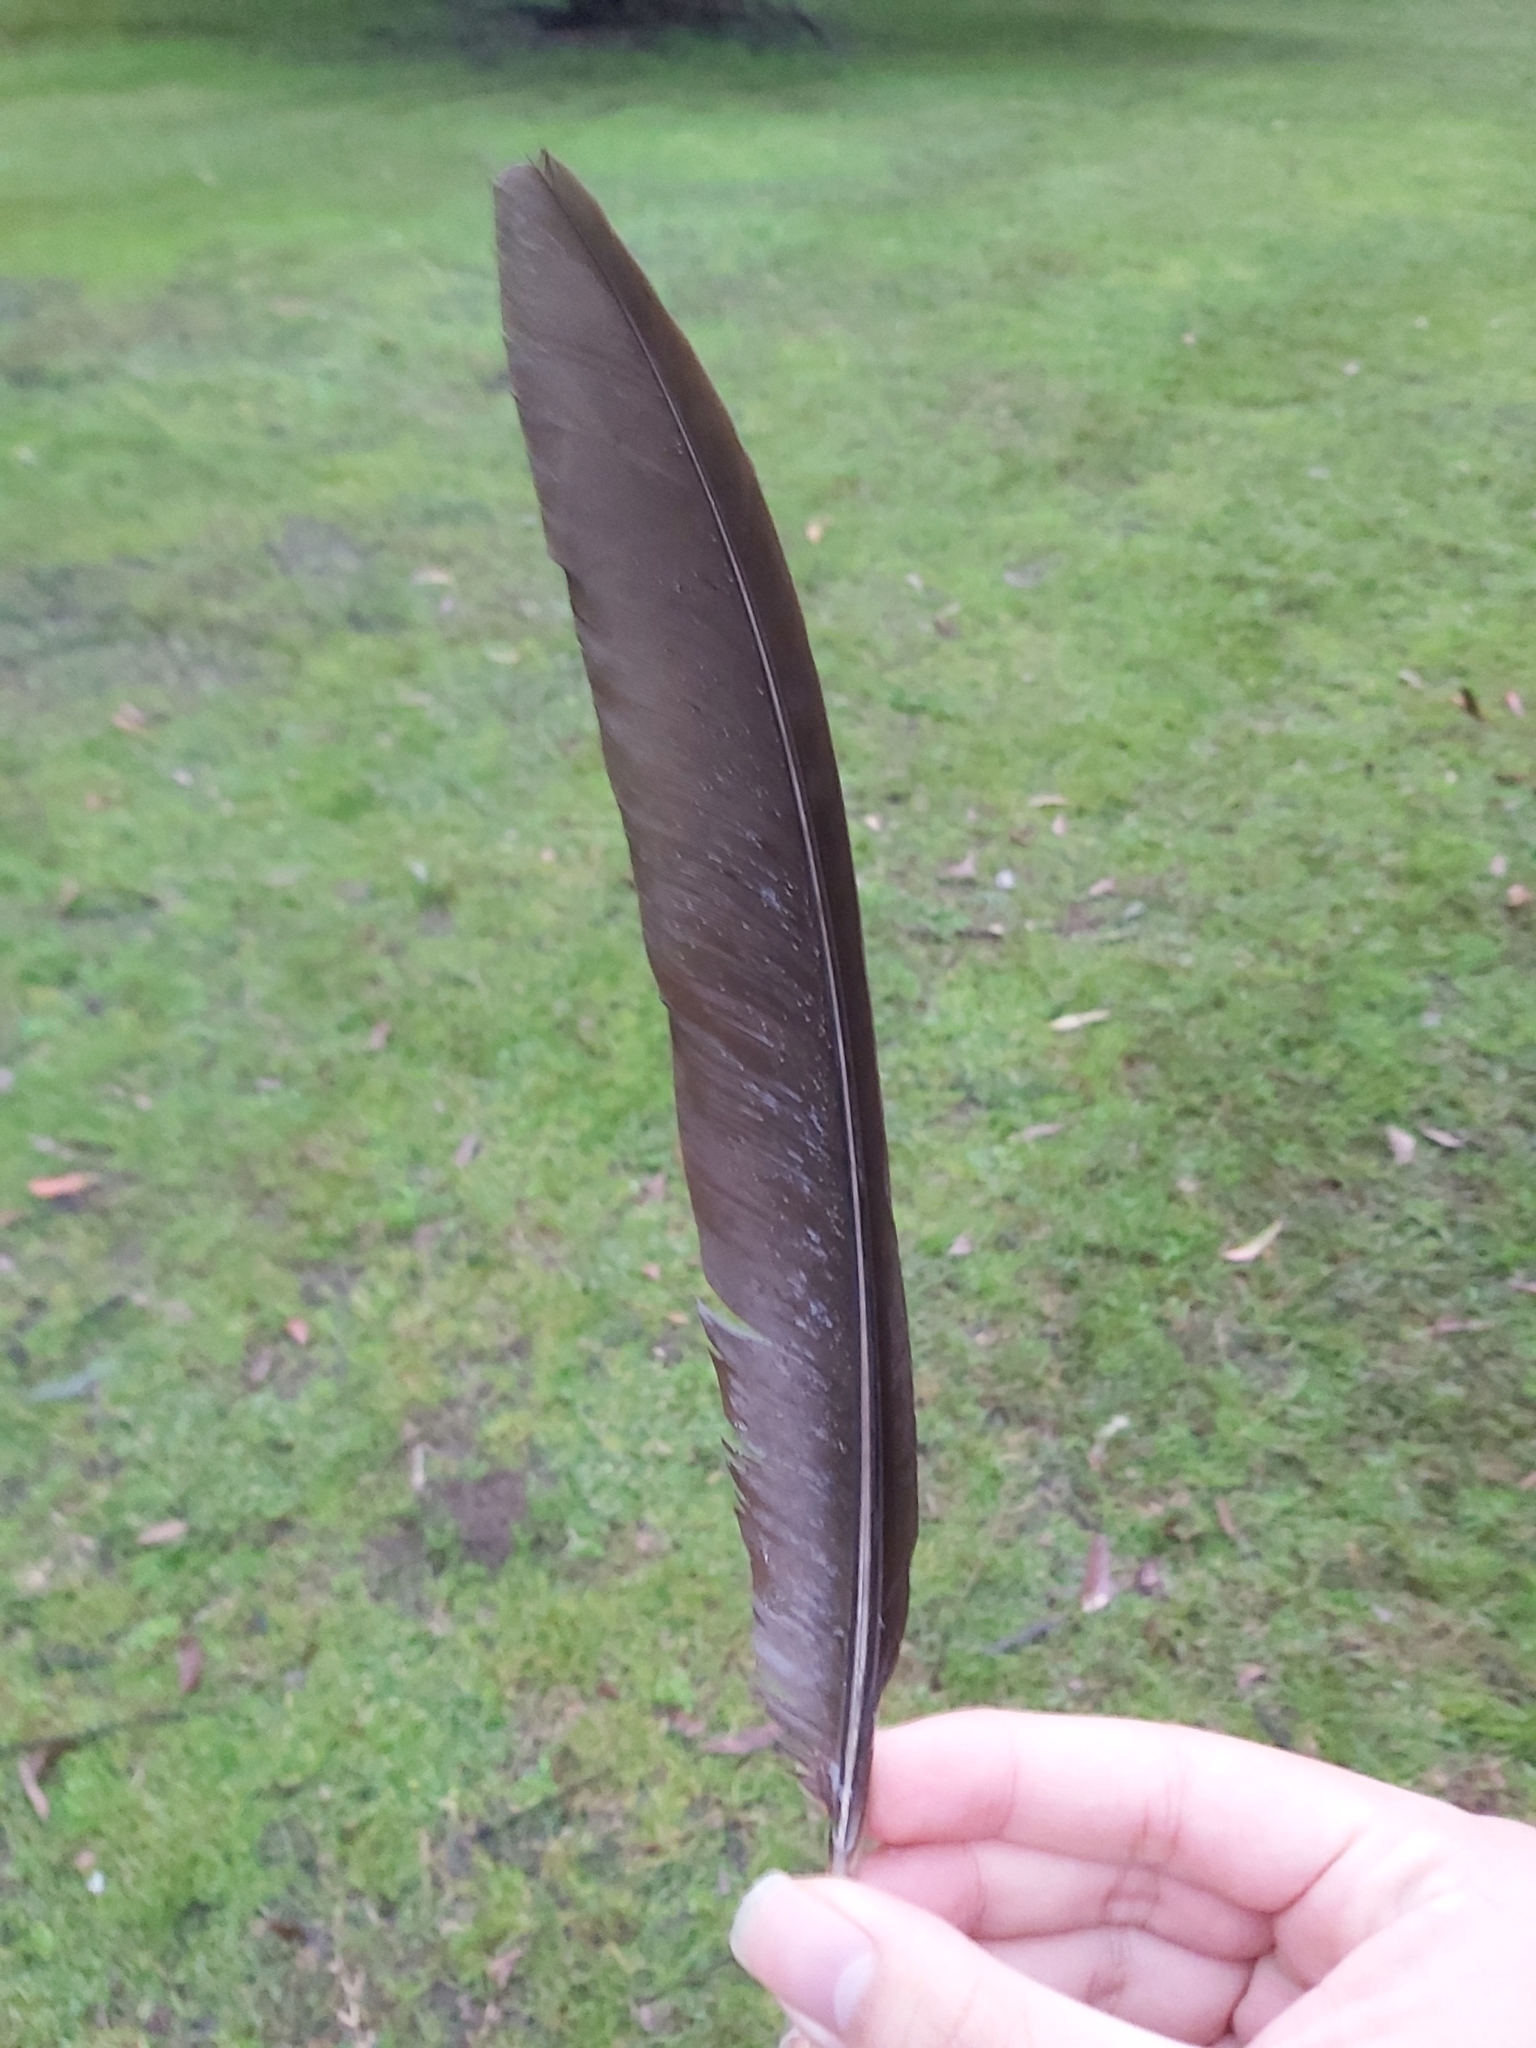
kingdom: Animalia
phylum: Chordata
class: Aves
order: Galliformes
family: Megapodiidae
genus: Alectura
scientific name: Alectura lathami
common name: Australian brushturkey
